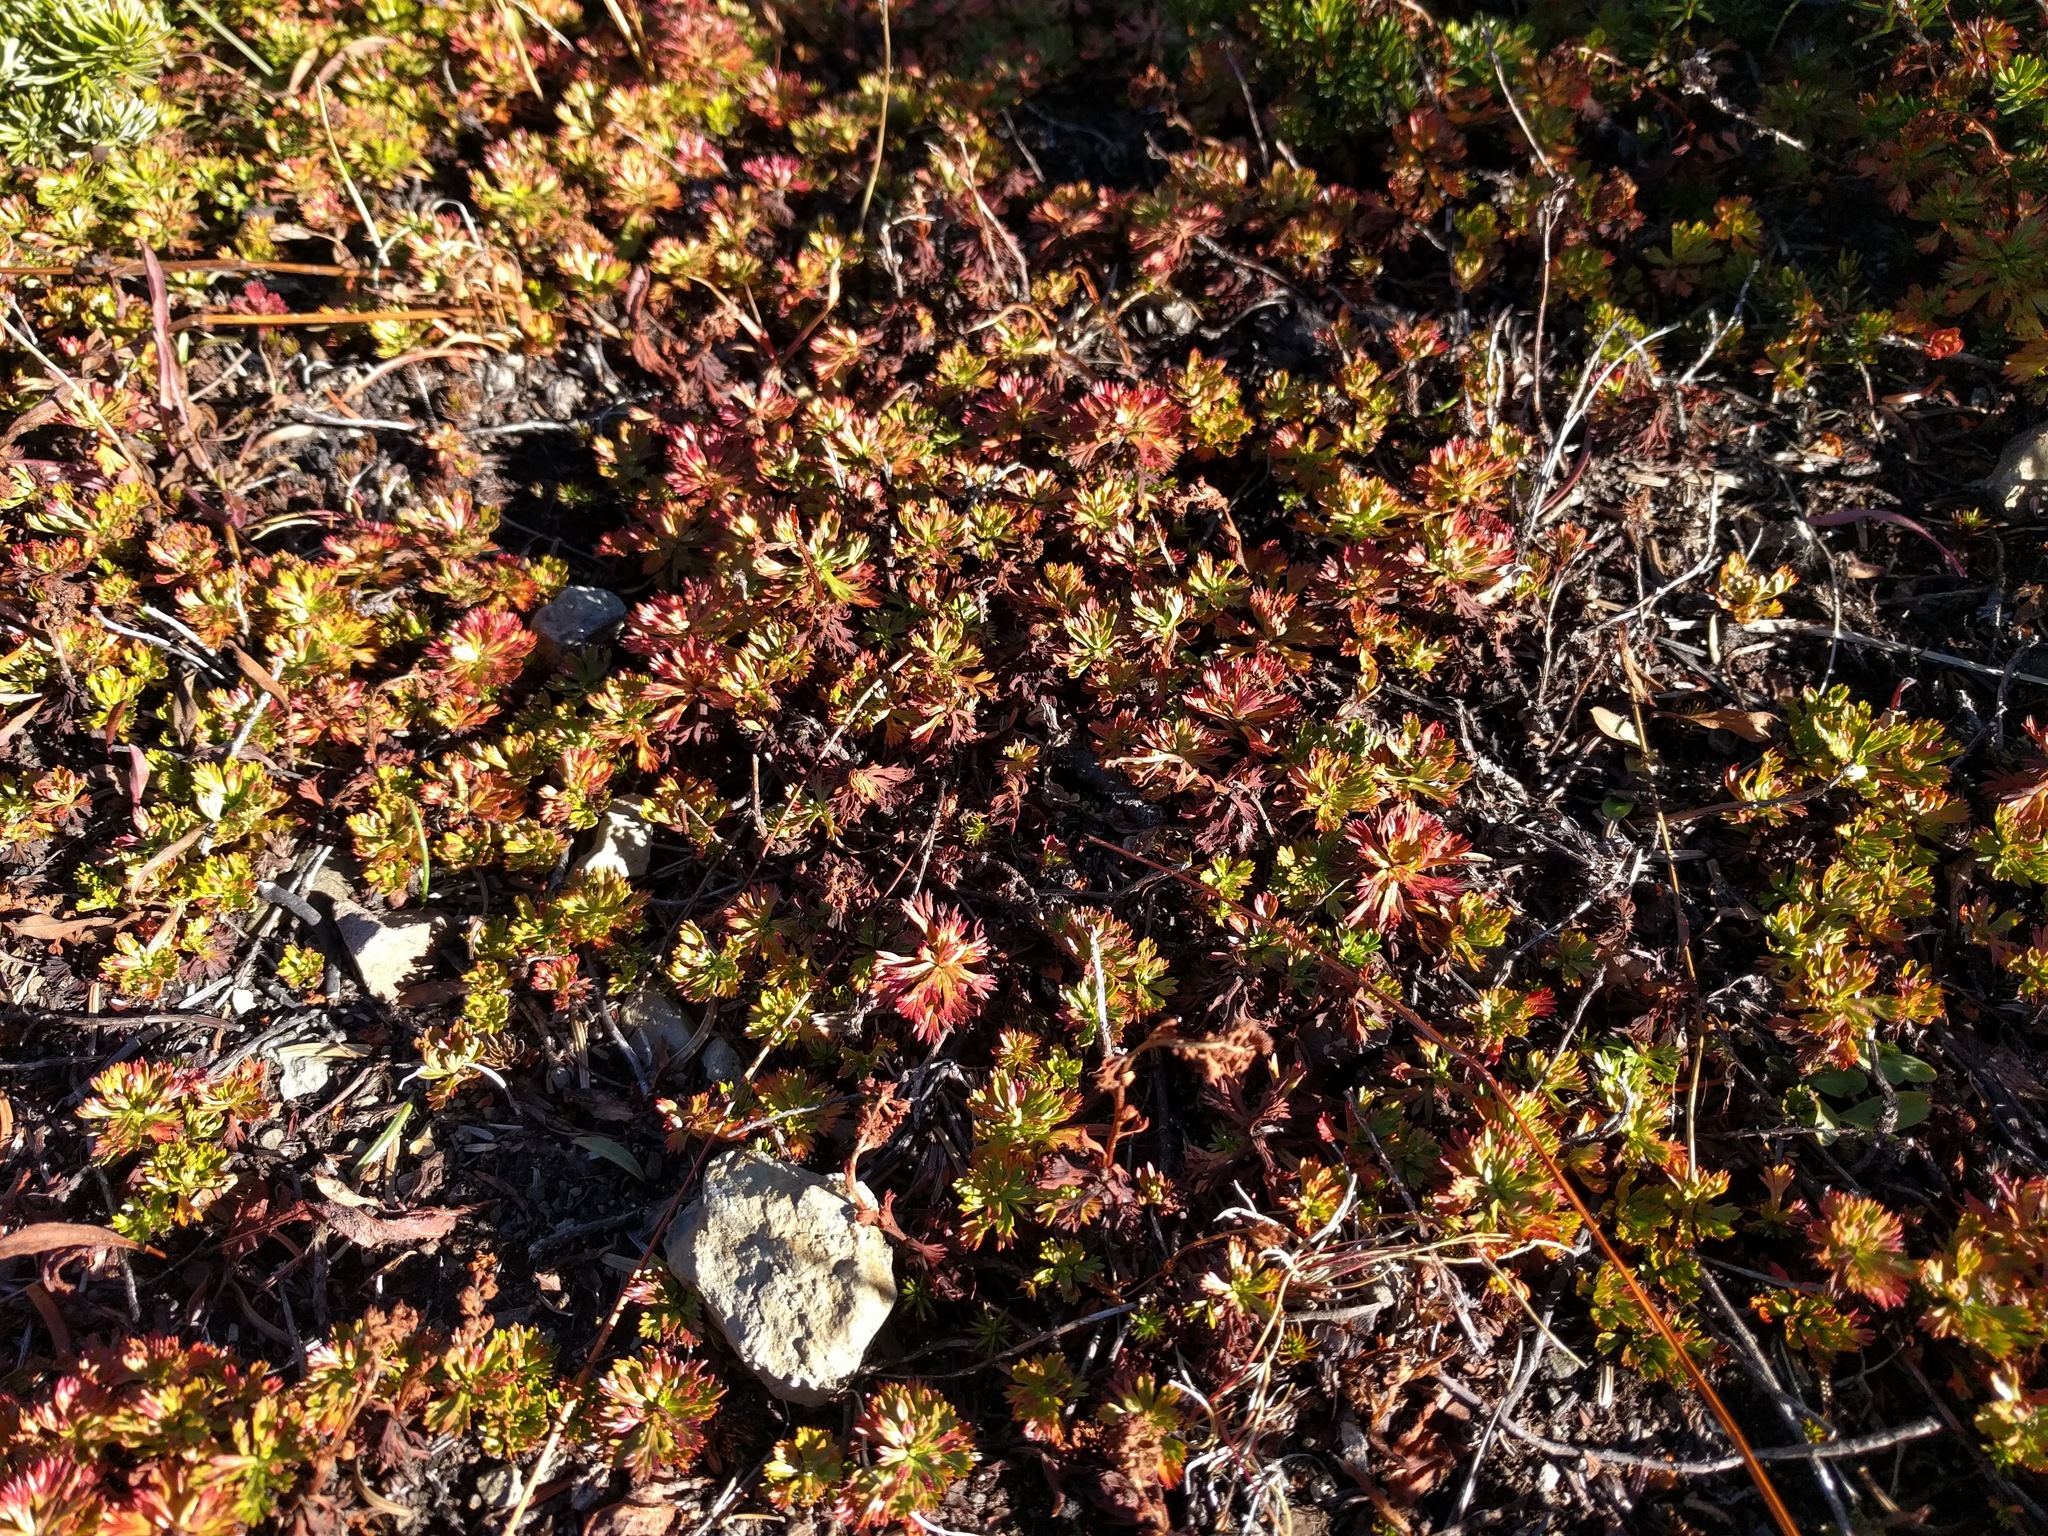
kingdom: Plantae
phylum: Tracheophyta
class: Magnoliopsida
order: Rosales
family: Rosaceae
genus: Luetkea
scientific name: Luetkea pectinata
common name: Partridgefoot
